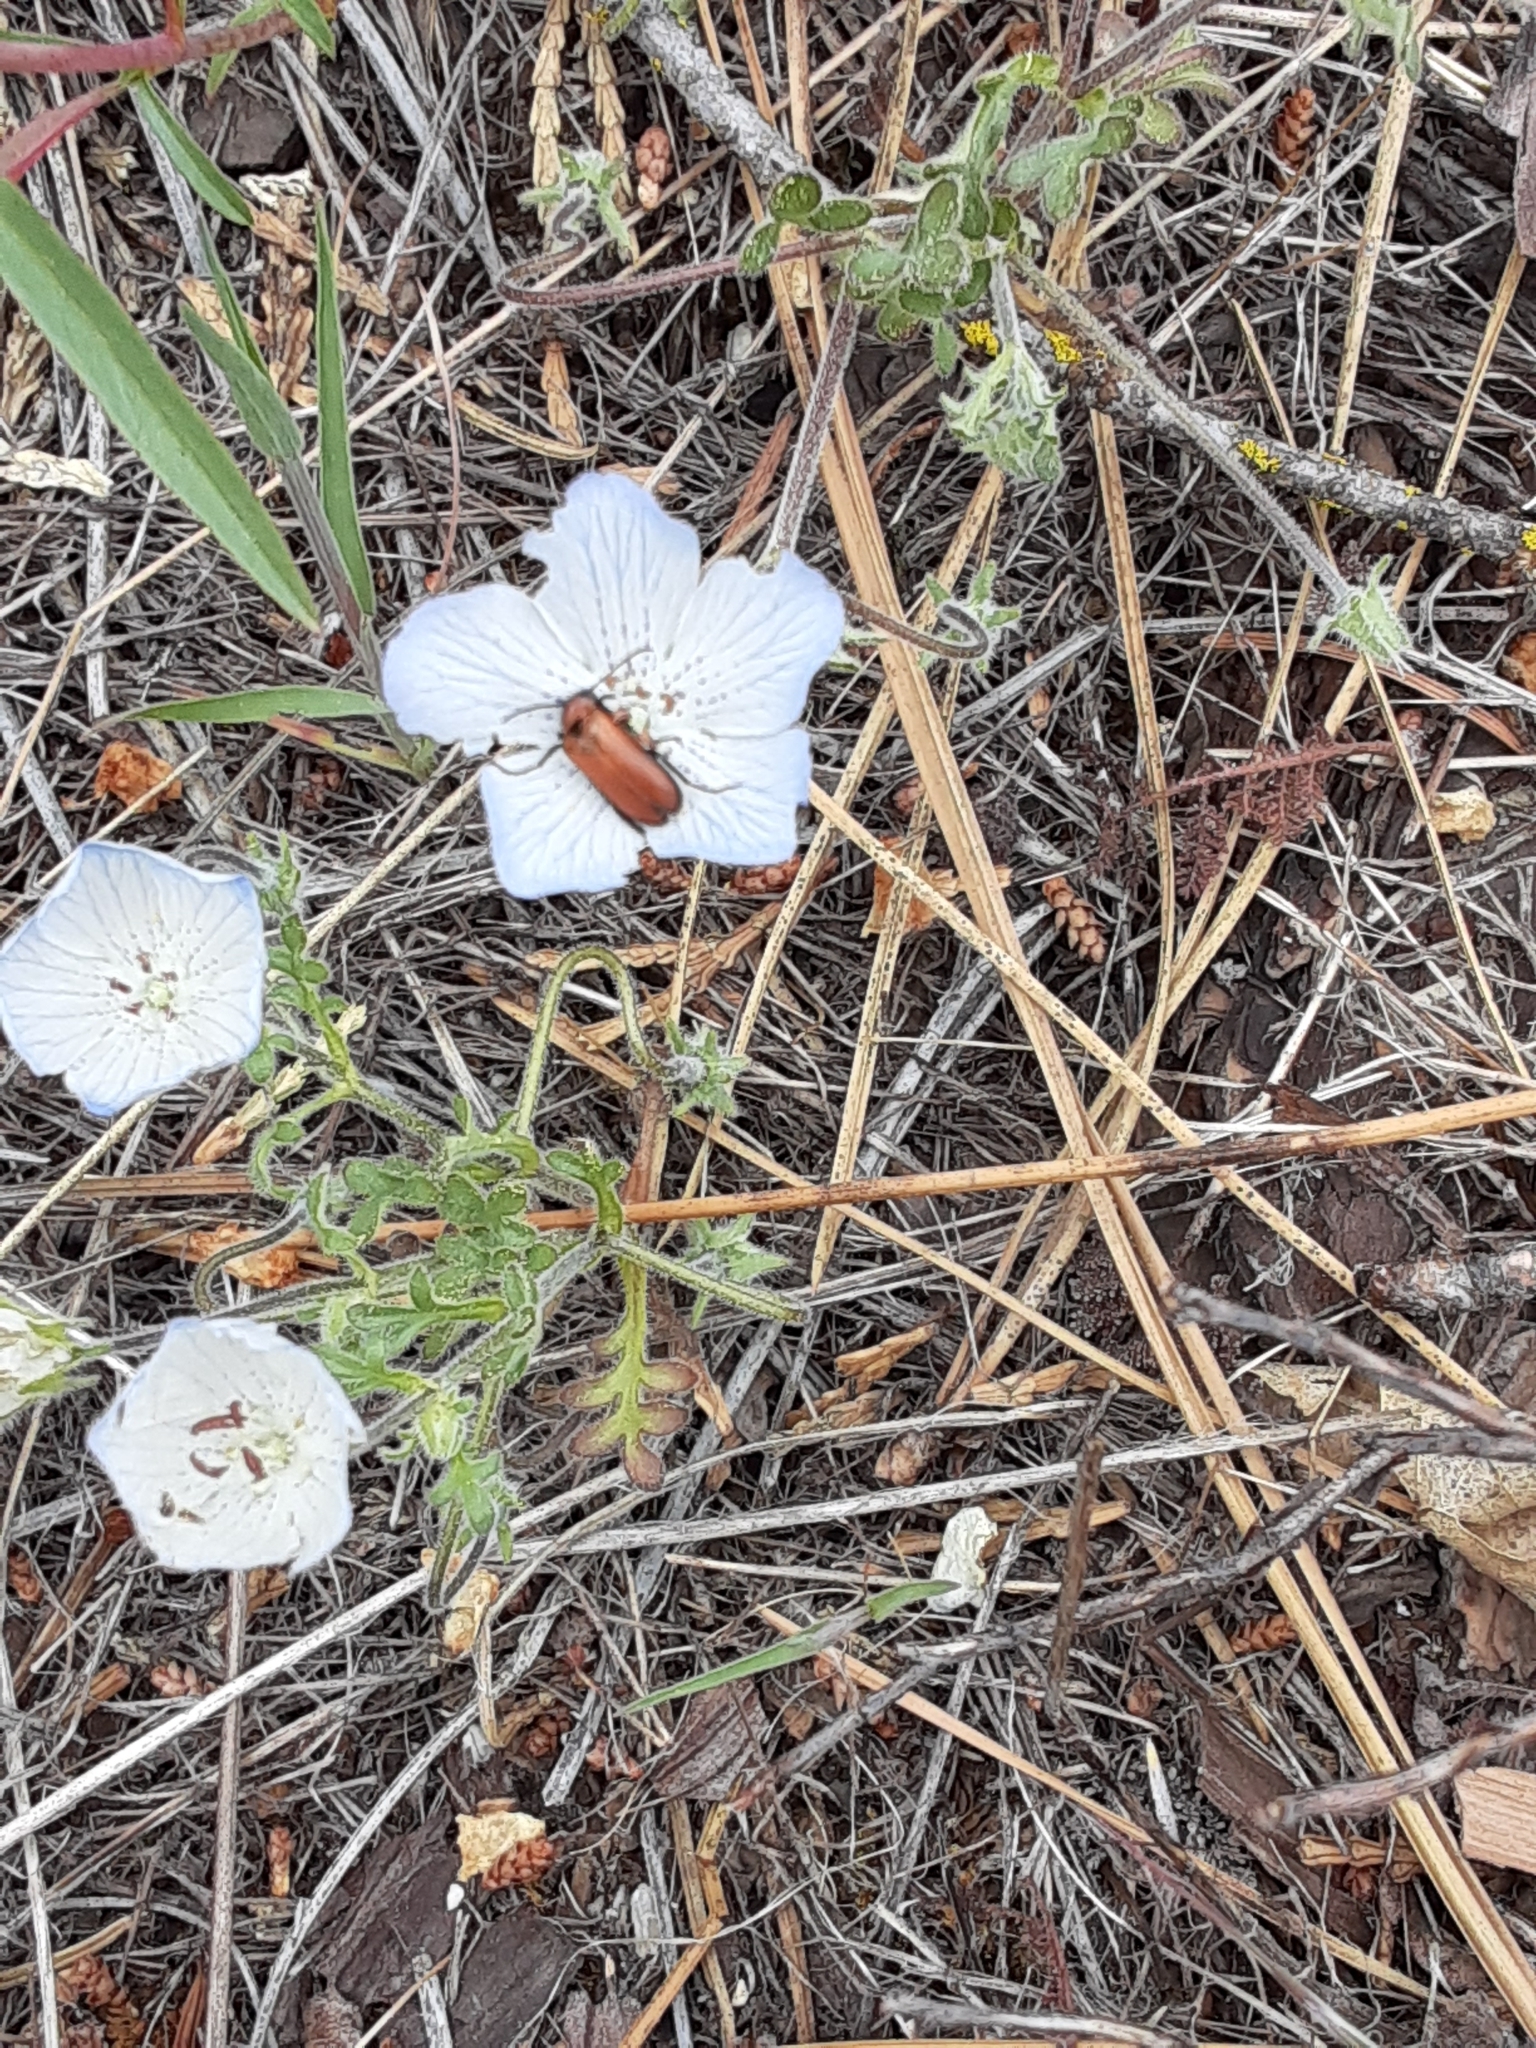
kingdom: Plantae
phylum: Tracheophyta
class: Magnoliopsida
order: Boraginales
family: Hydrophyllaceae
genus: Nemophila
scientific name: Nemophila menziesii
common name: Baby's-blue-eyes
